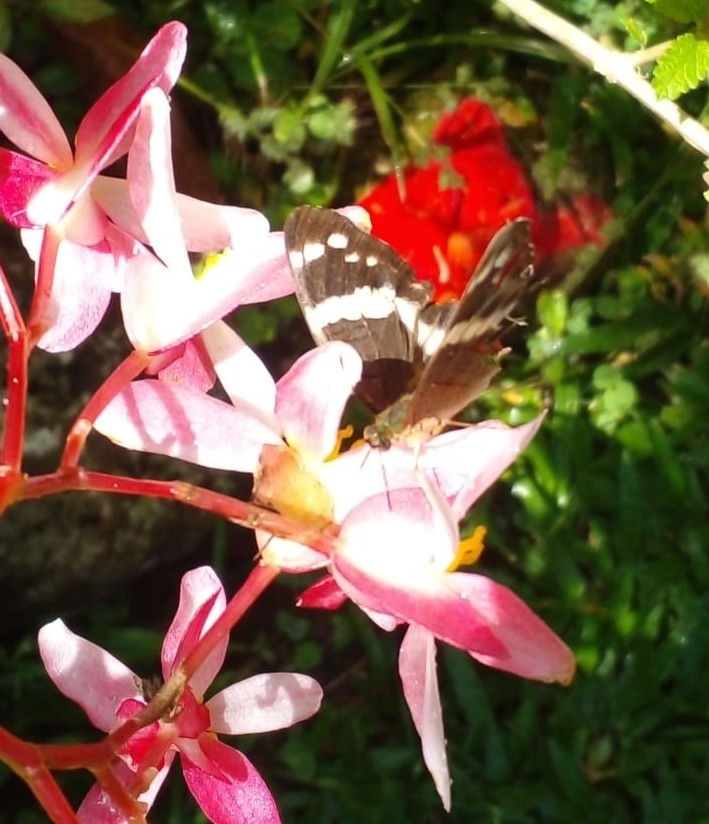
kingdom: Animalia
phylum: Arthropoda
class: Insecta
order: Lepidoptera
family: Nymphalidae
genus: Anartia
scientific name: Anartia fatima
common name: Banded peacock
